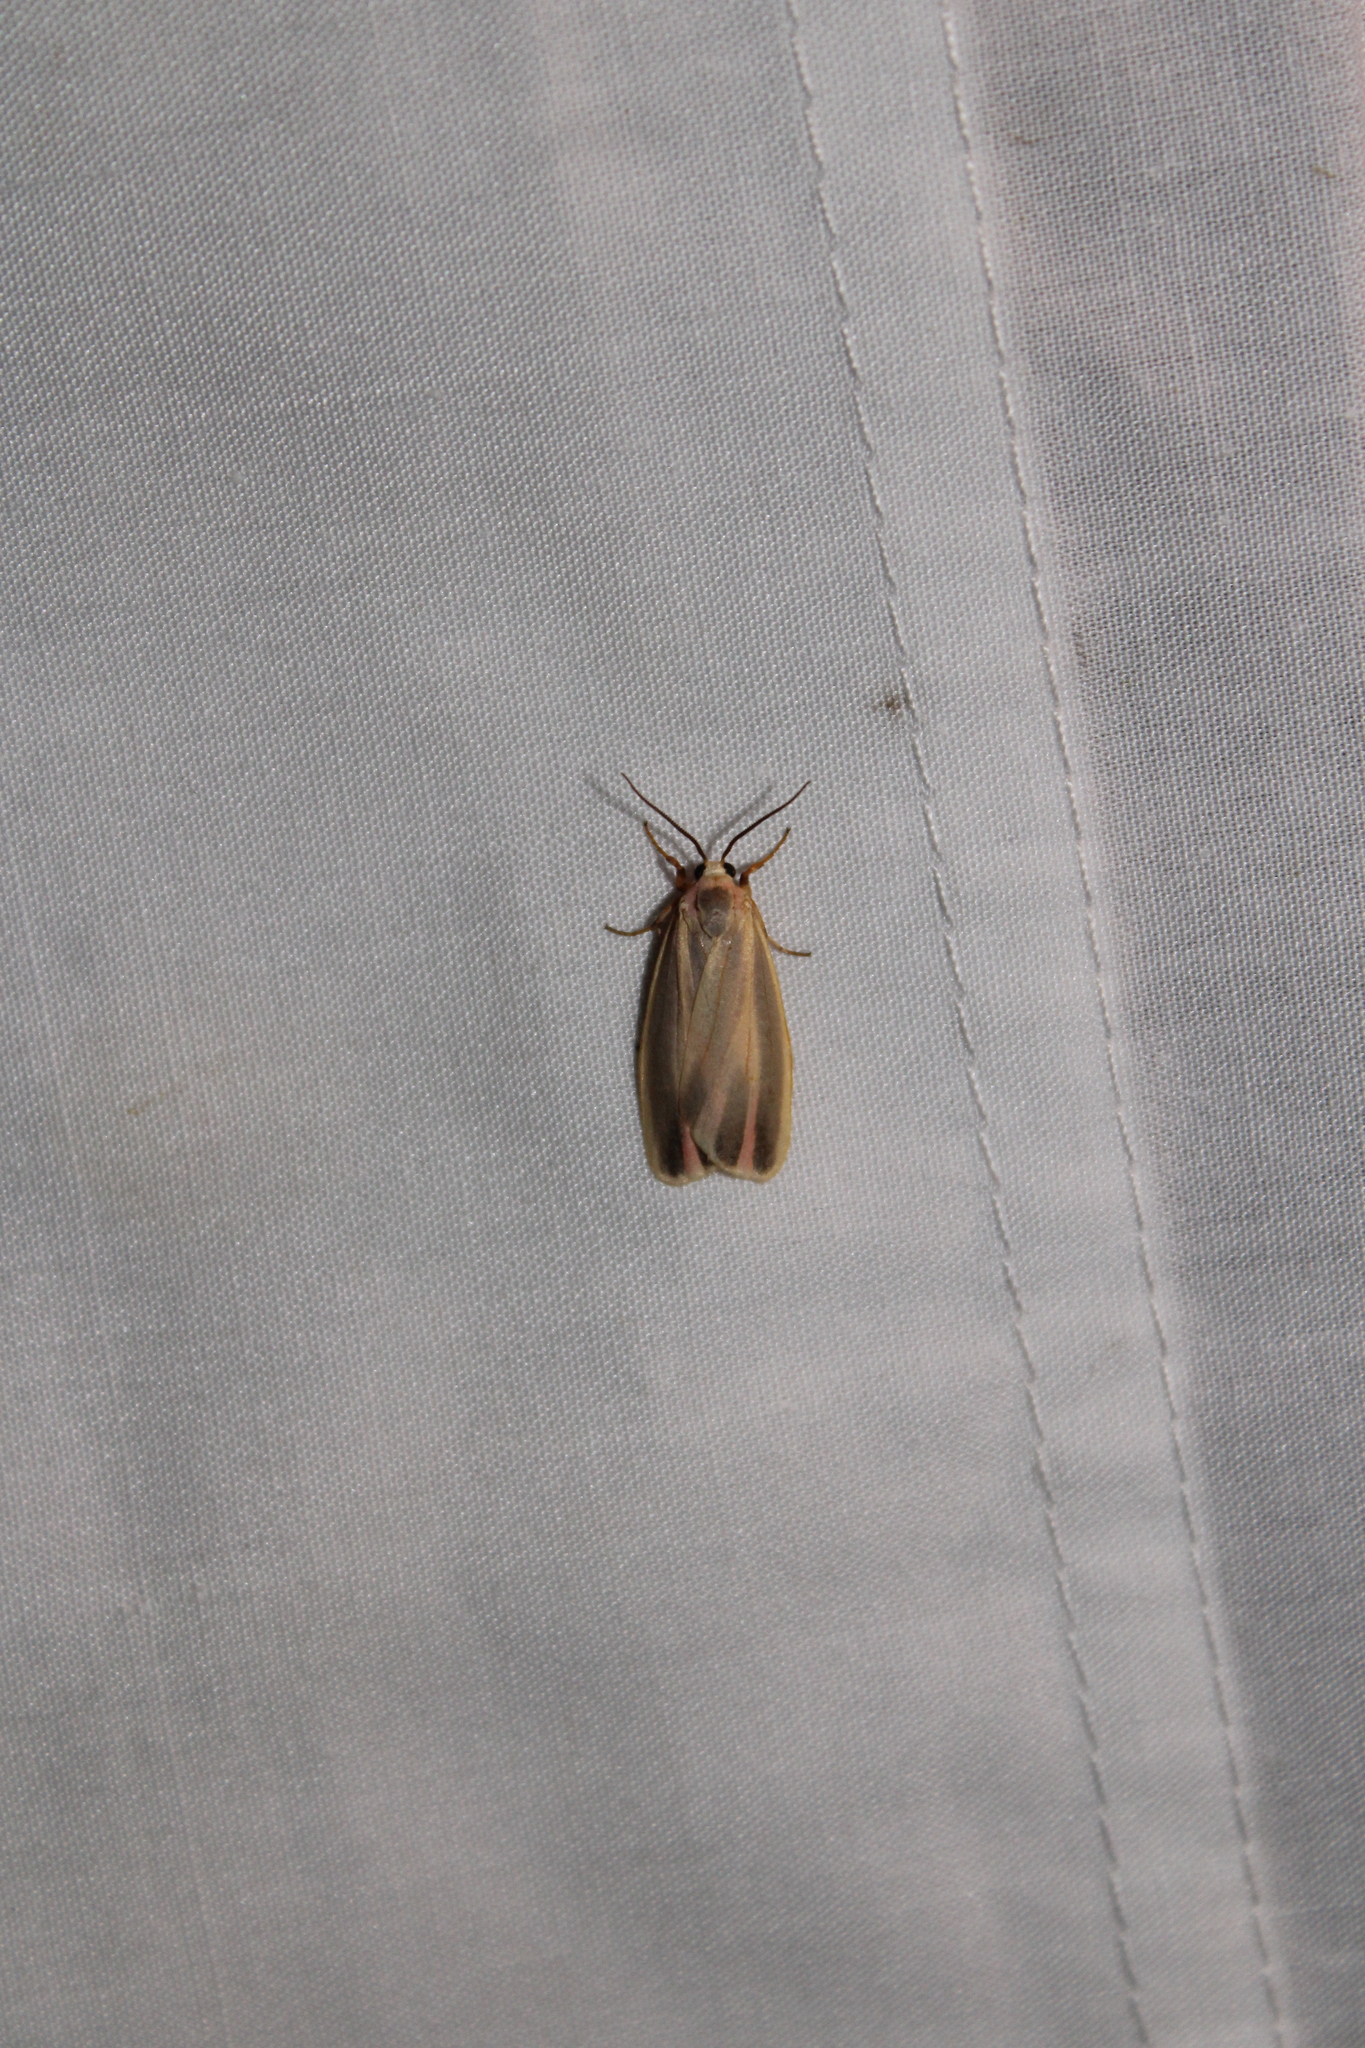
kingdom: Animalia
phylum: Arthropoda
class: Insecta
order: Lepidoptera
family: Erebidae
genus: Hypoprepia
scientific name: Hypoprepia fucosa
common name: Painted lichen moth
